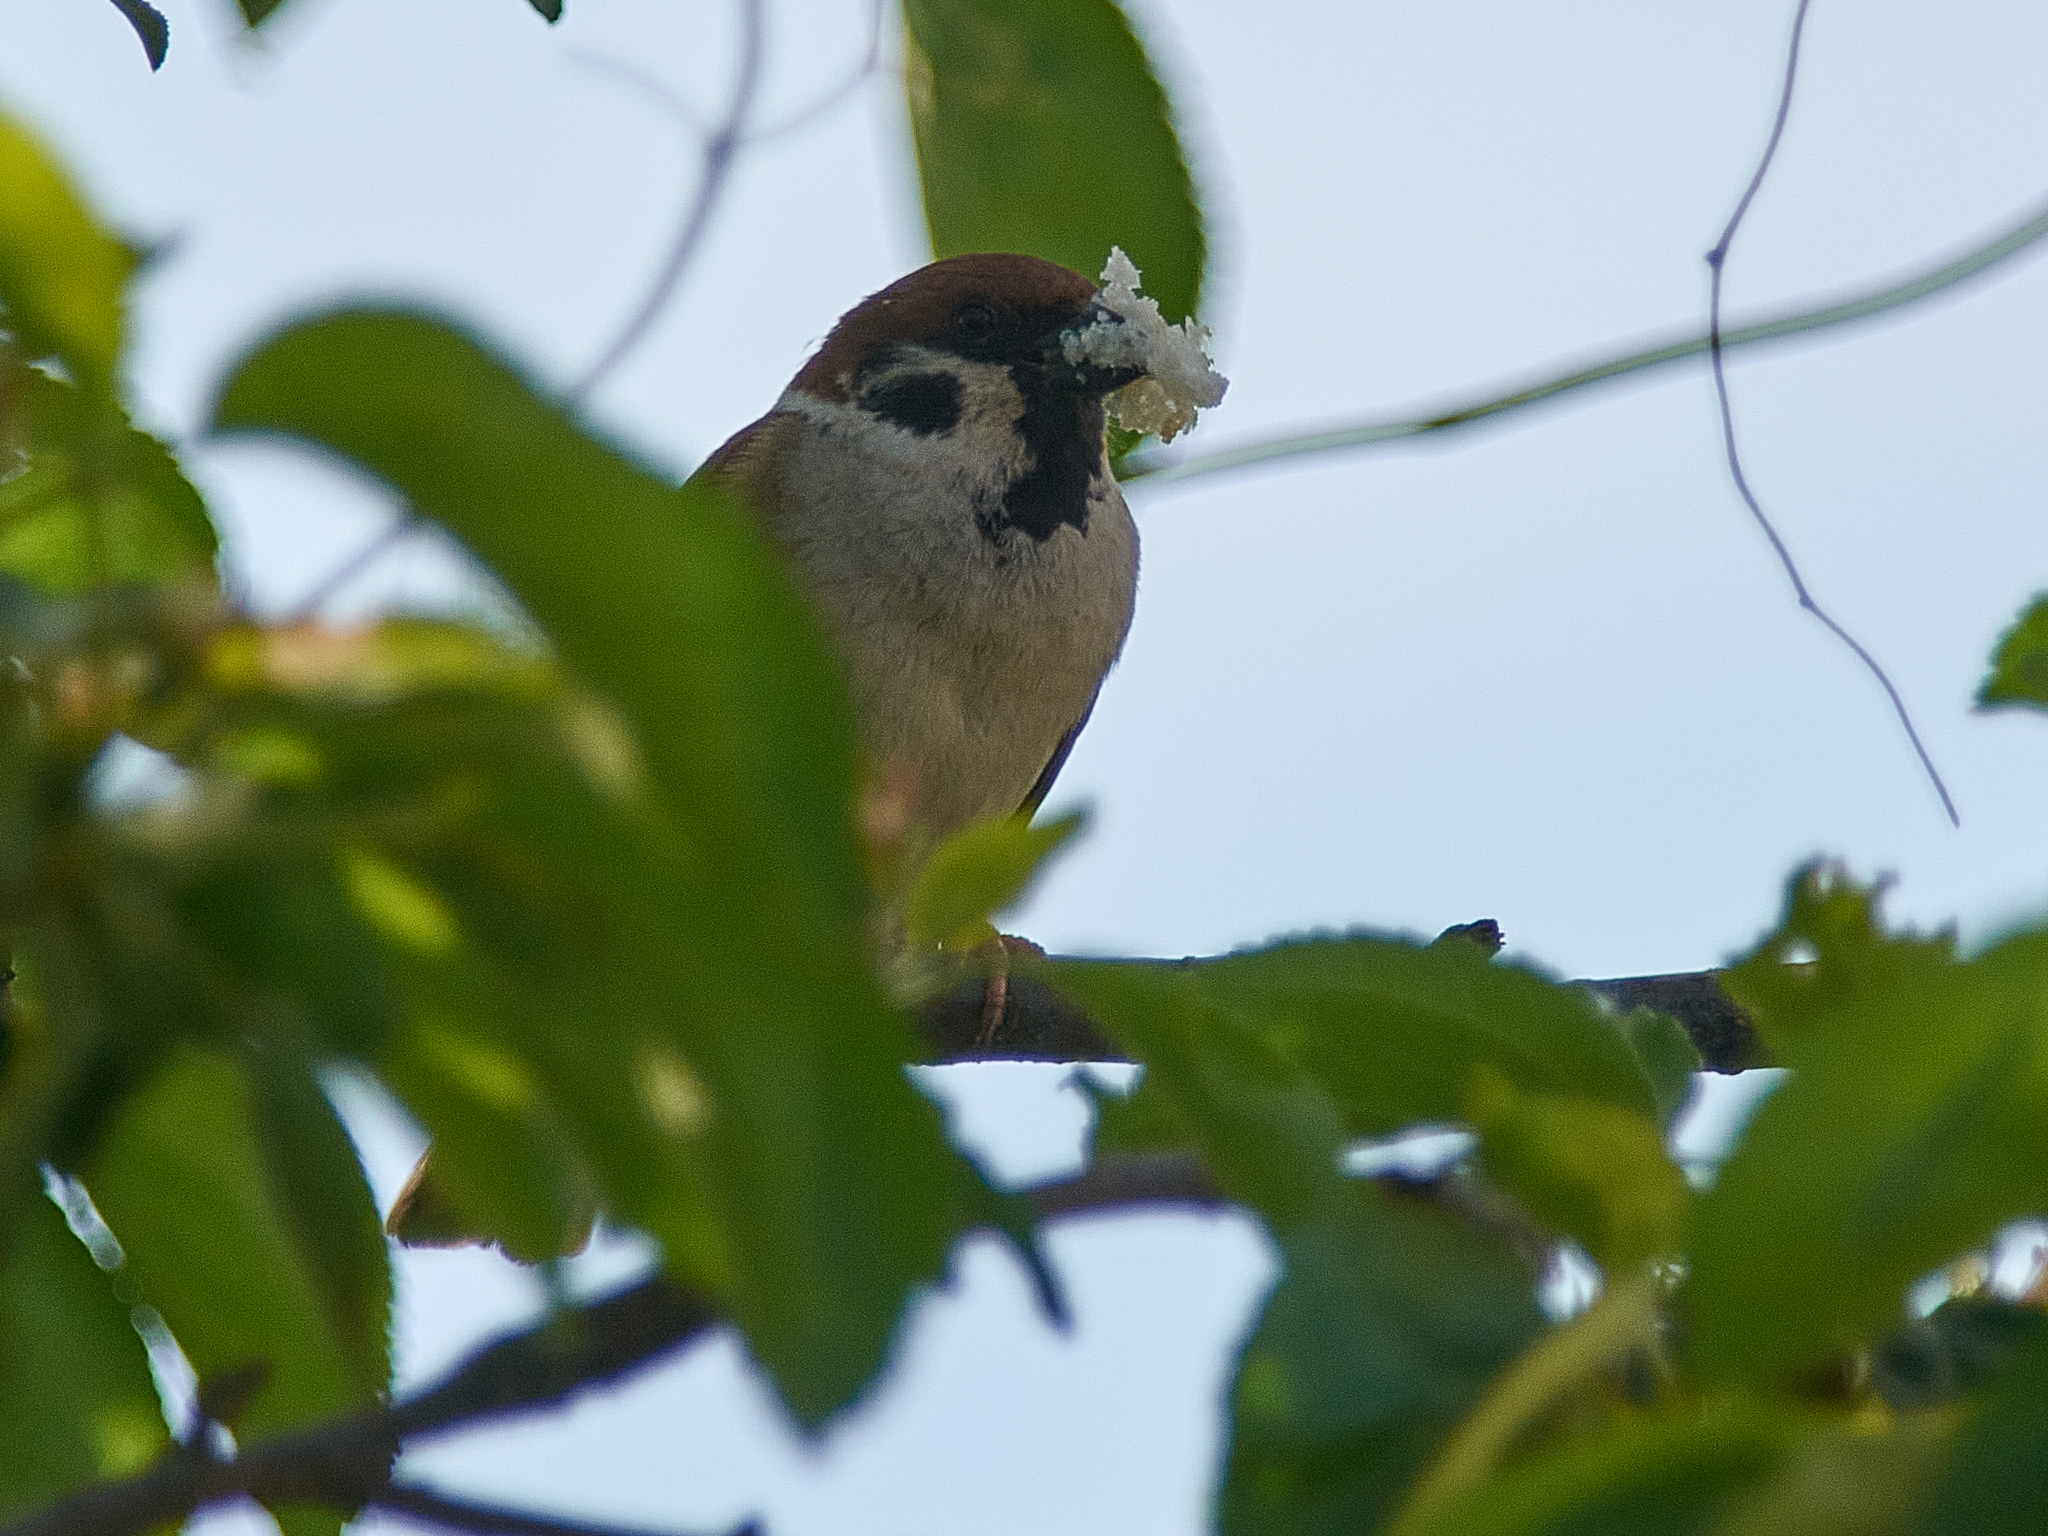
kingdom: Animalia
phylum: Chordata
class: Aves
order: Passeriformes
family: Passeridae
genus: Passer
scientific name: Passer montanus
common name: Eurasian tree sparrow
